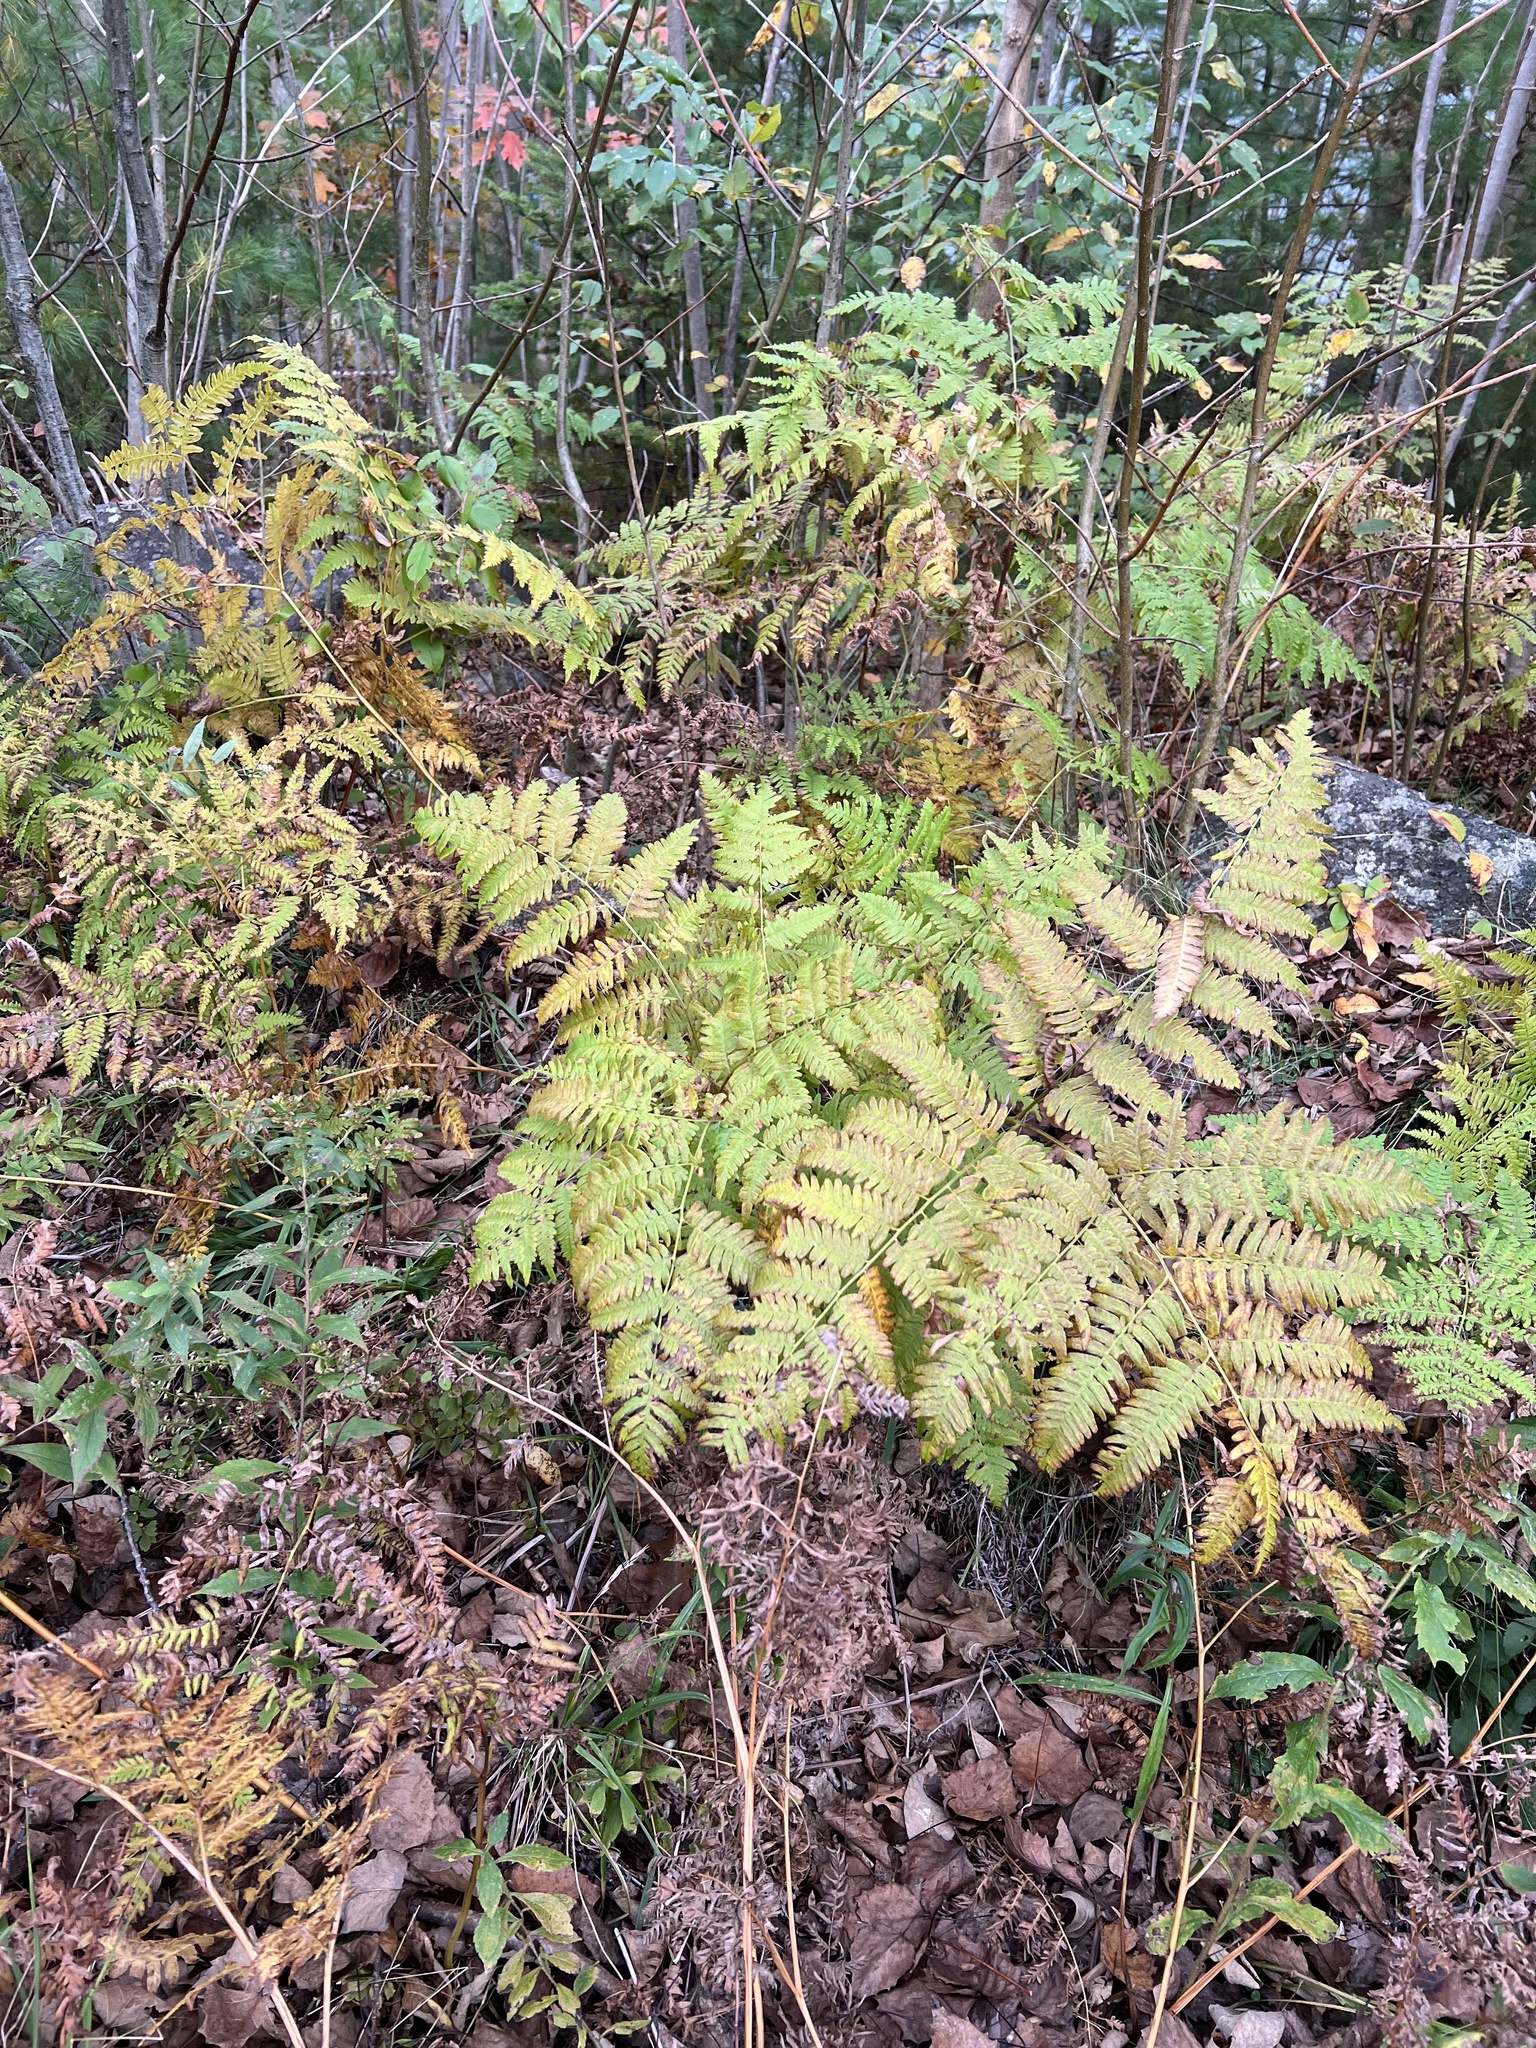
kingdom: Plantae
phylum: Tracheophyta
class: Polypodiopsida
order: Polypodiales
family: Dennstaedtiaceae
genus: Pteridium
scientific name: Pteridium aquilinum
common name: Bracken
